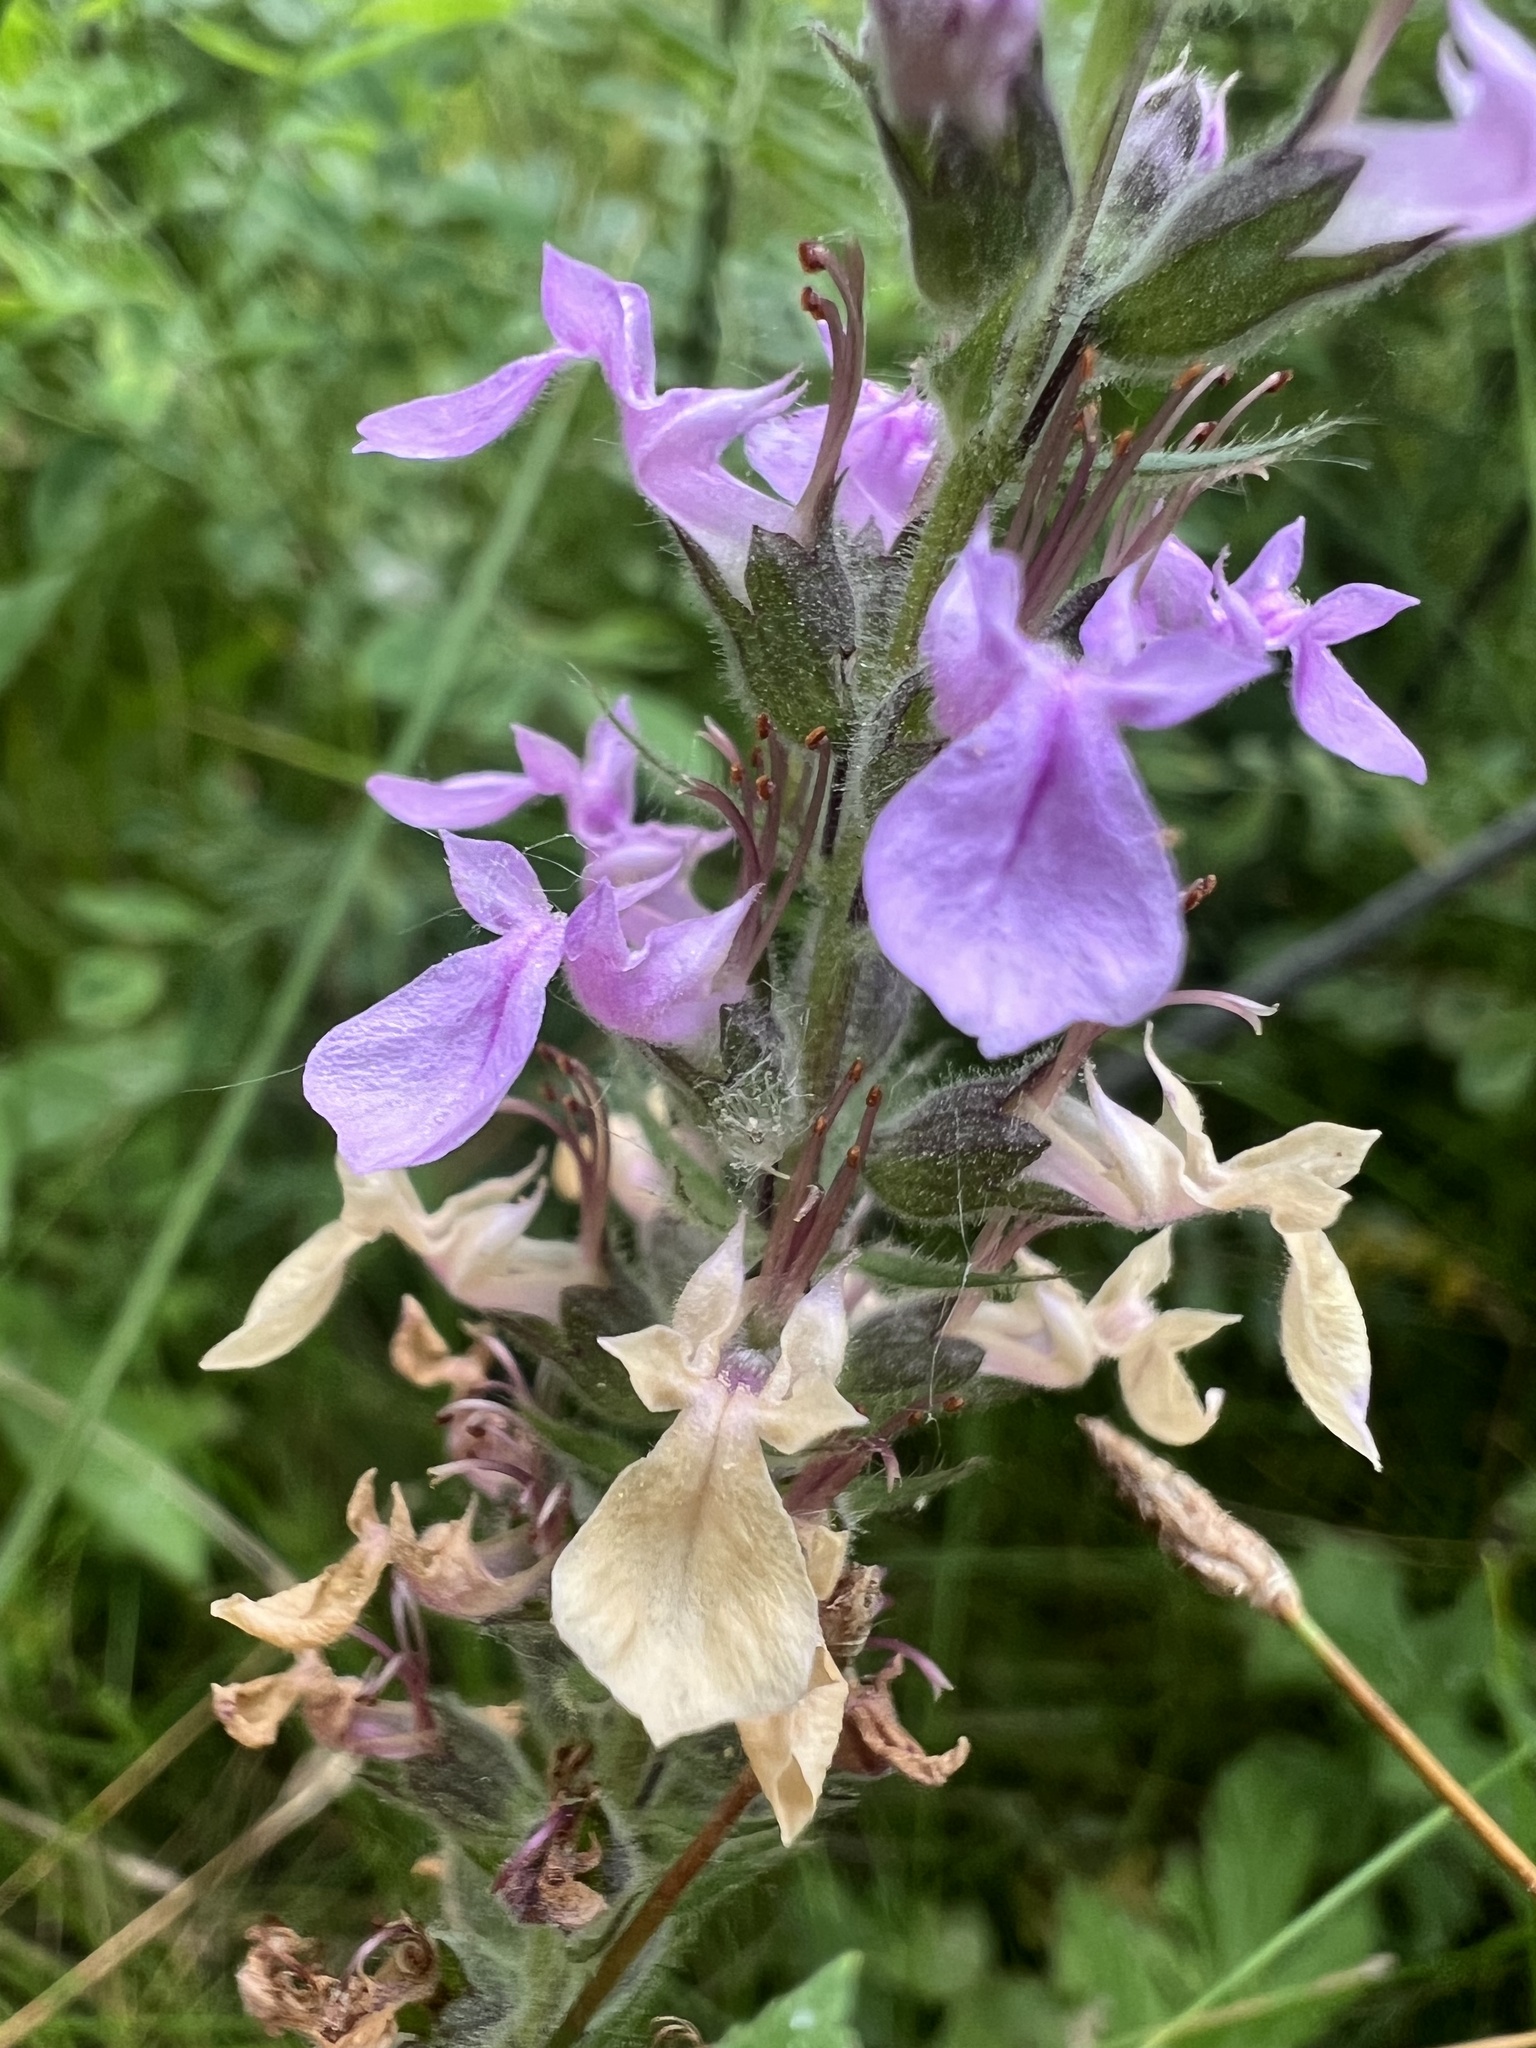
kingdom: Plantae
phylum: Tracheophyta
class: Magnoliopsida
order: Lamiales
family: Lamiaceae
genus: Teucrium
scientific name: Teucrium canadense
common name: American germander
